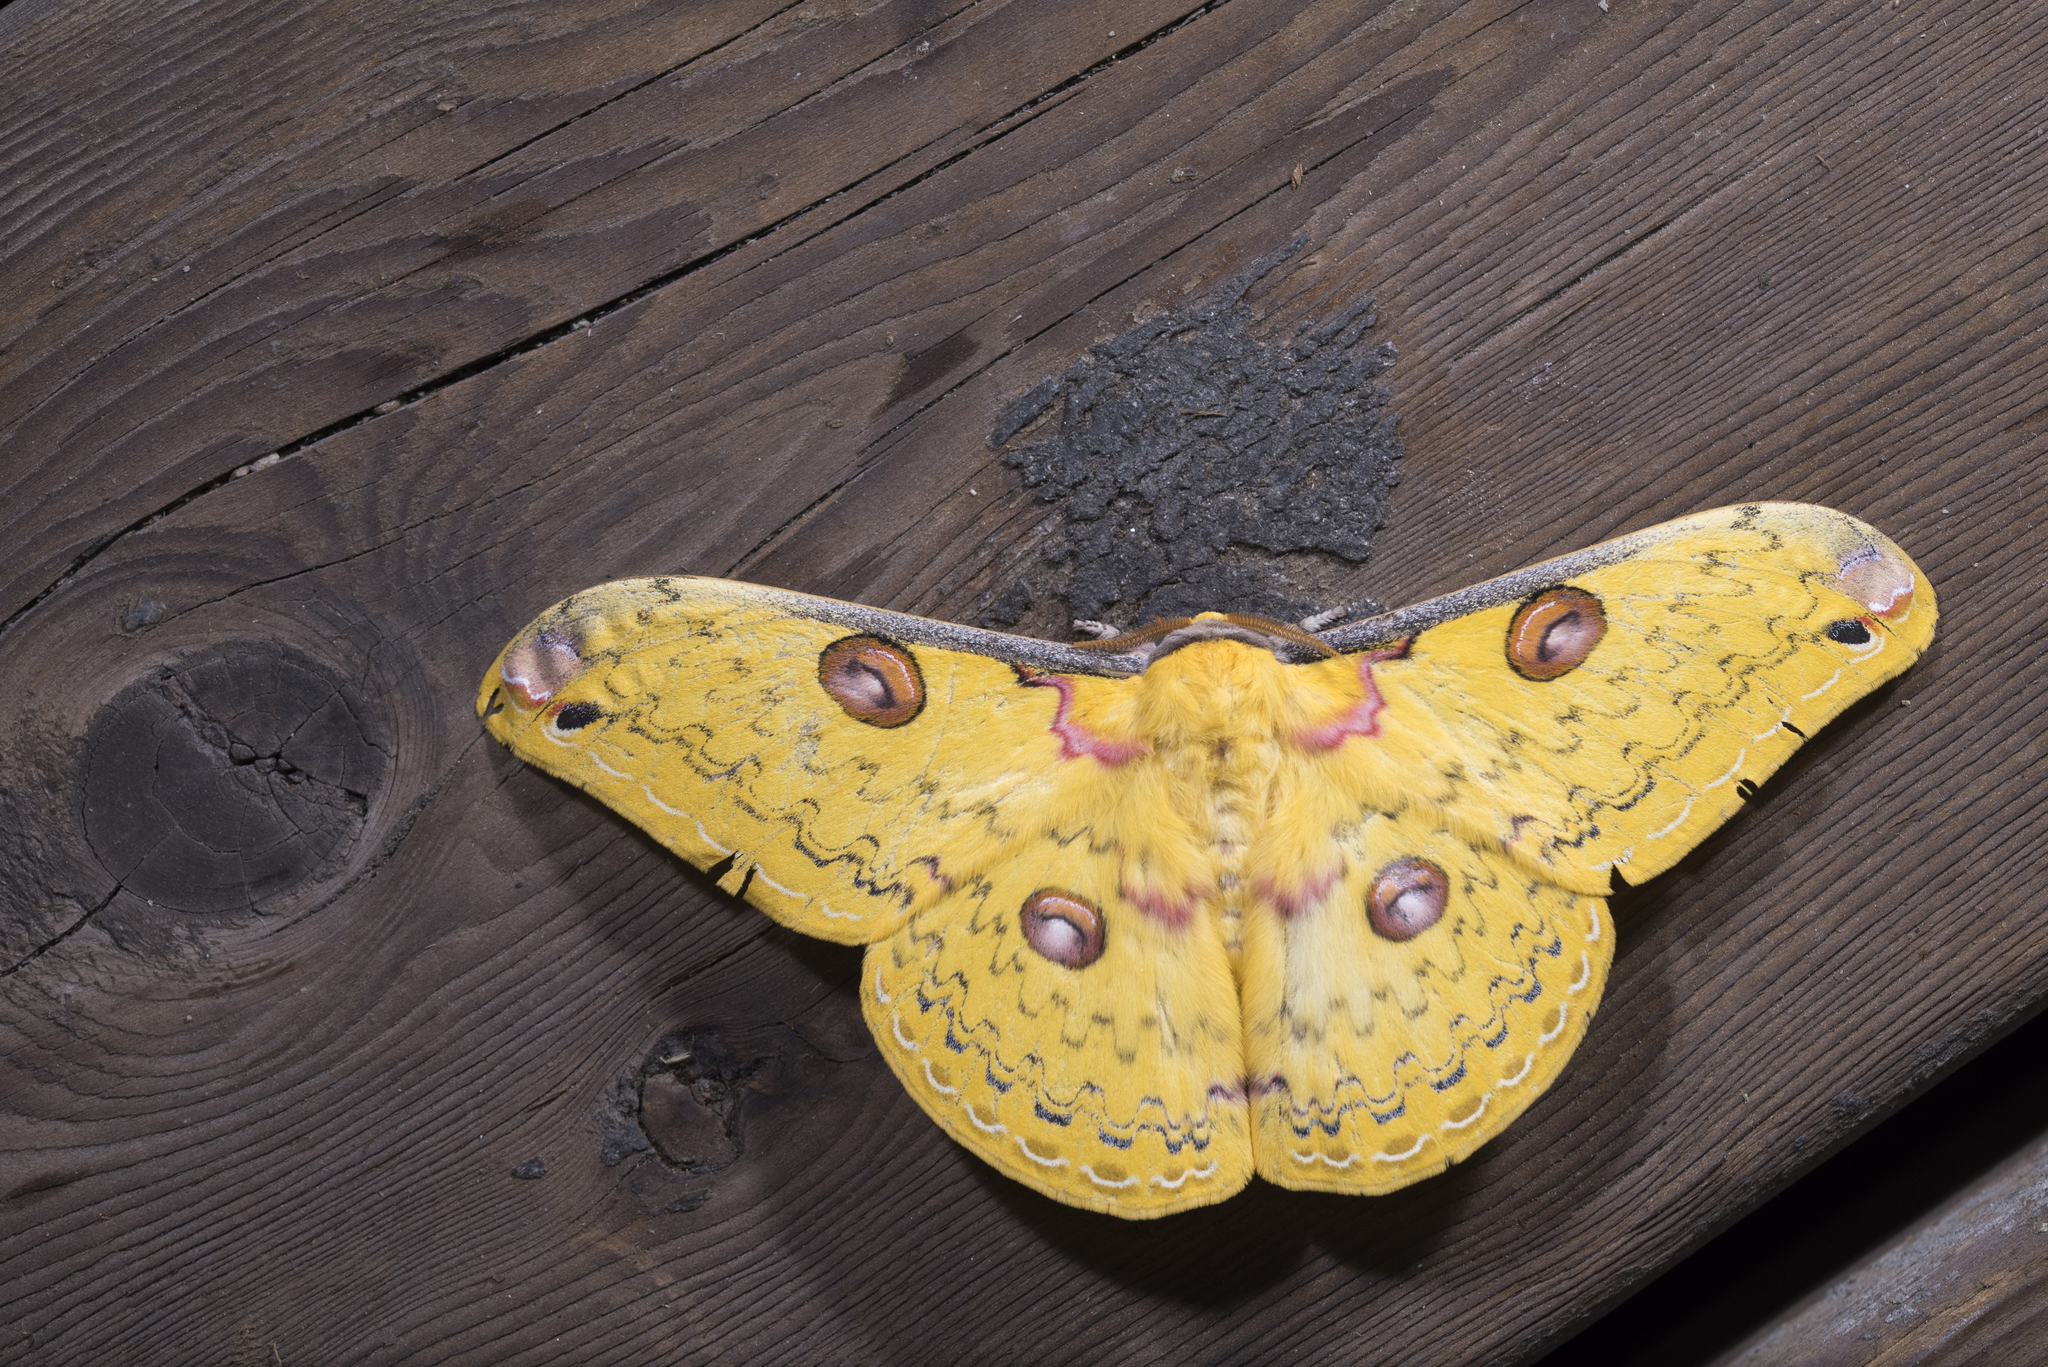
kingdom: Animalia
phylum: Arthropoda
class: Insecta
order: Lepidoptera
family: Saturniidae
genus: Loepa
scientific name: Loepa formosensis
